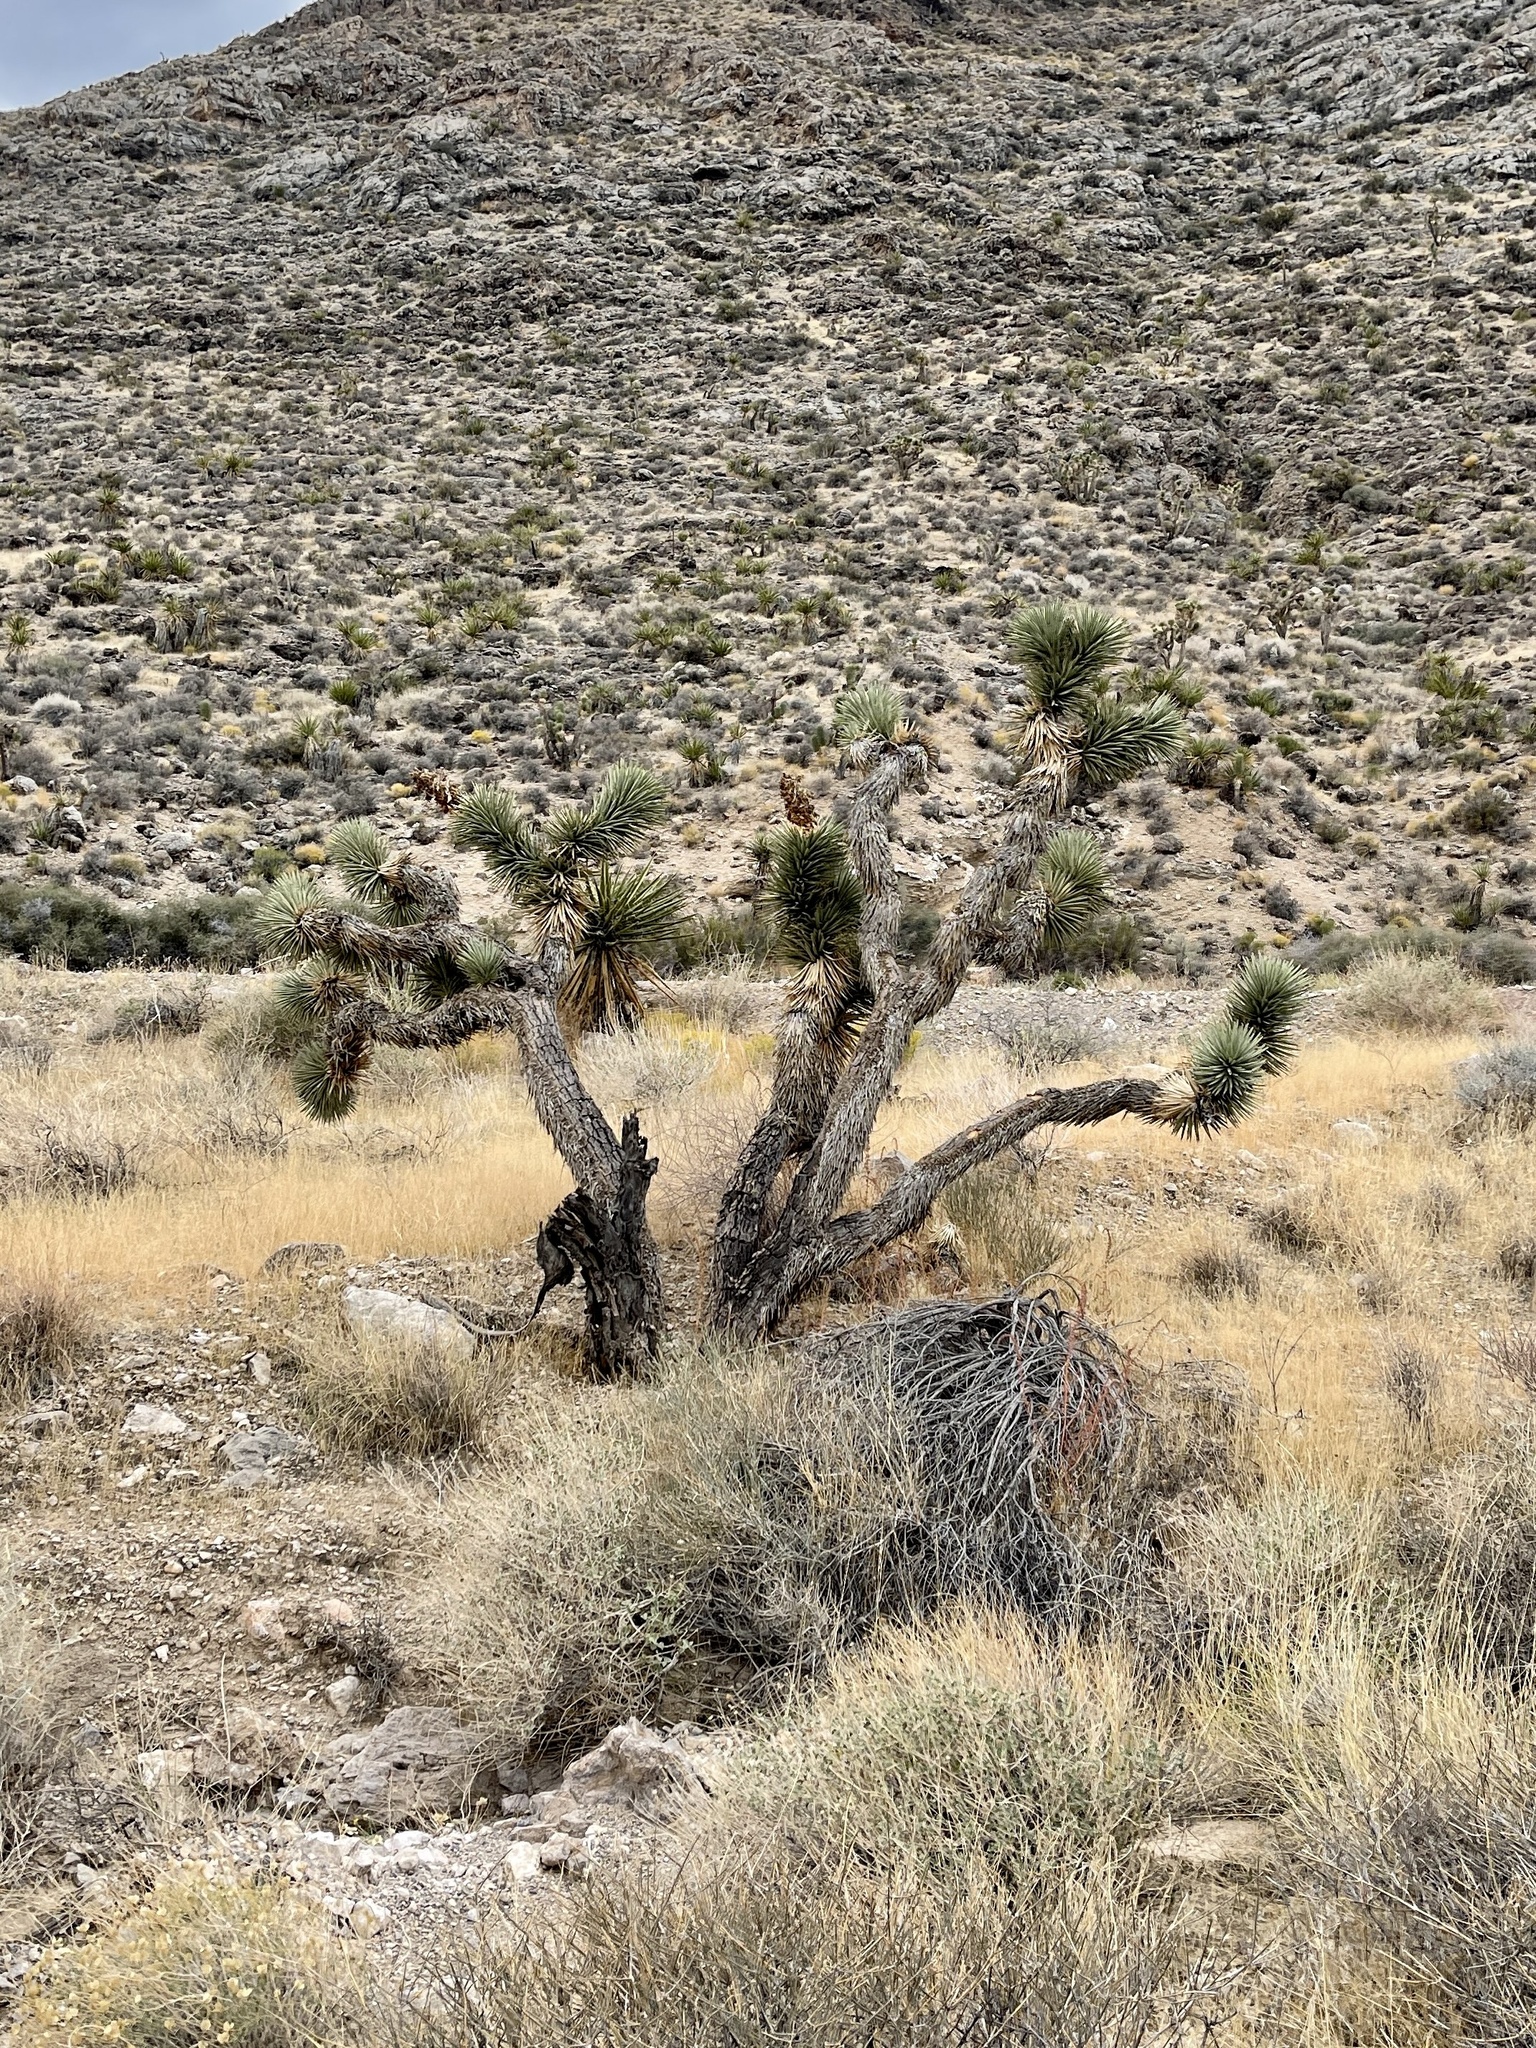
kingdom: Plantae
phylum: Tracheophyta
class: Liliopsida
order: Asparagales
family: Asparagaceae
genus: Yucca
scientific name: Yucca brevifolia
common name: Joshua tree
